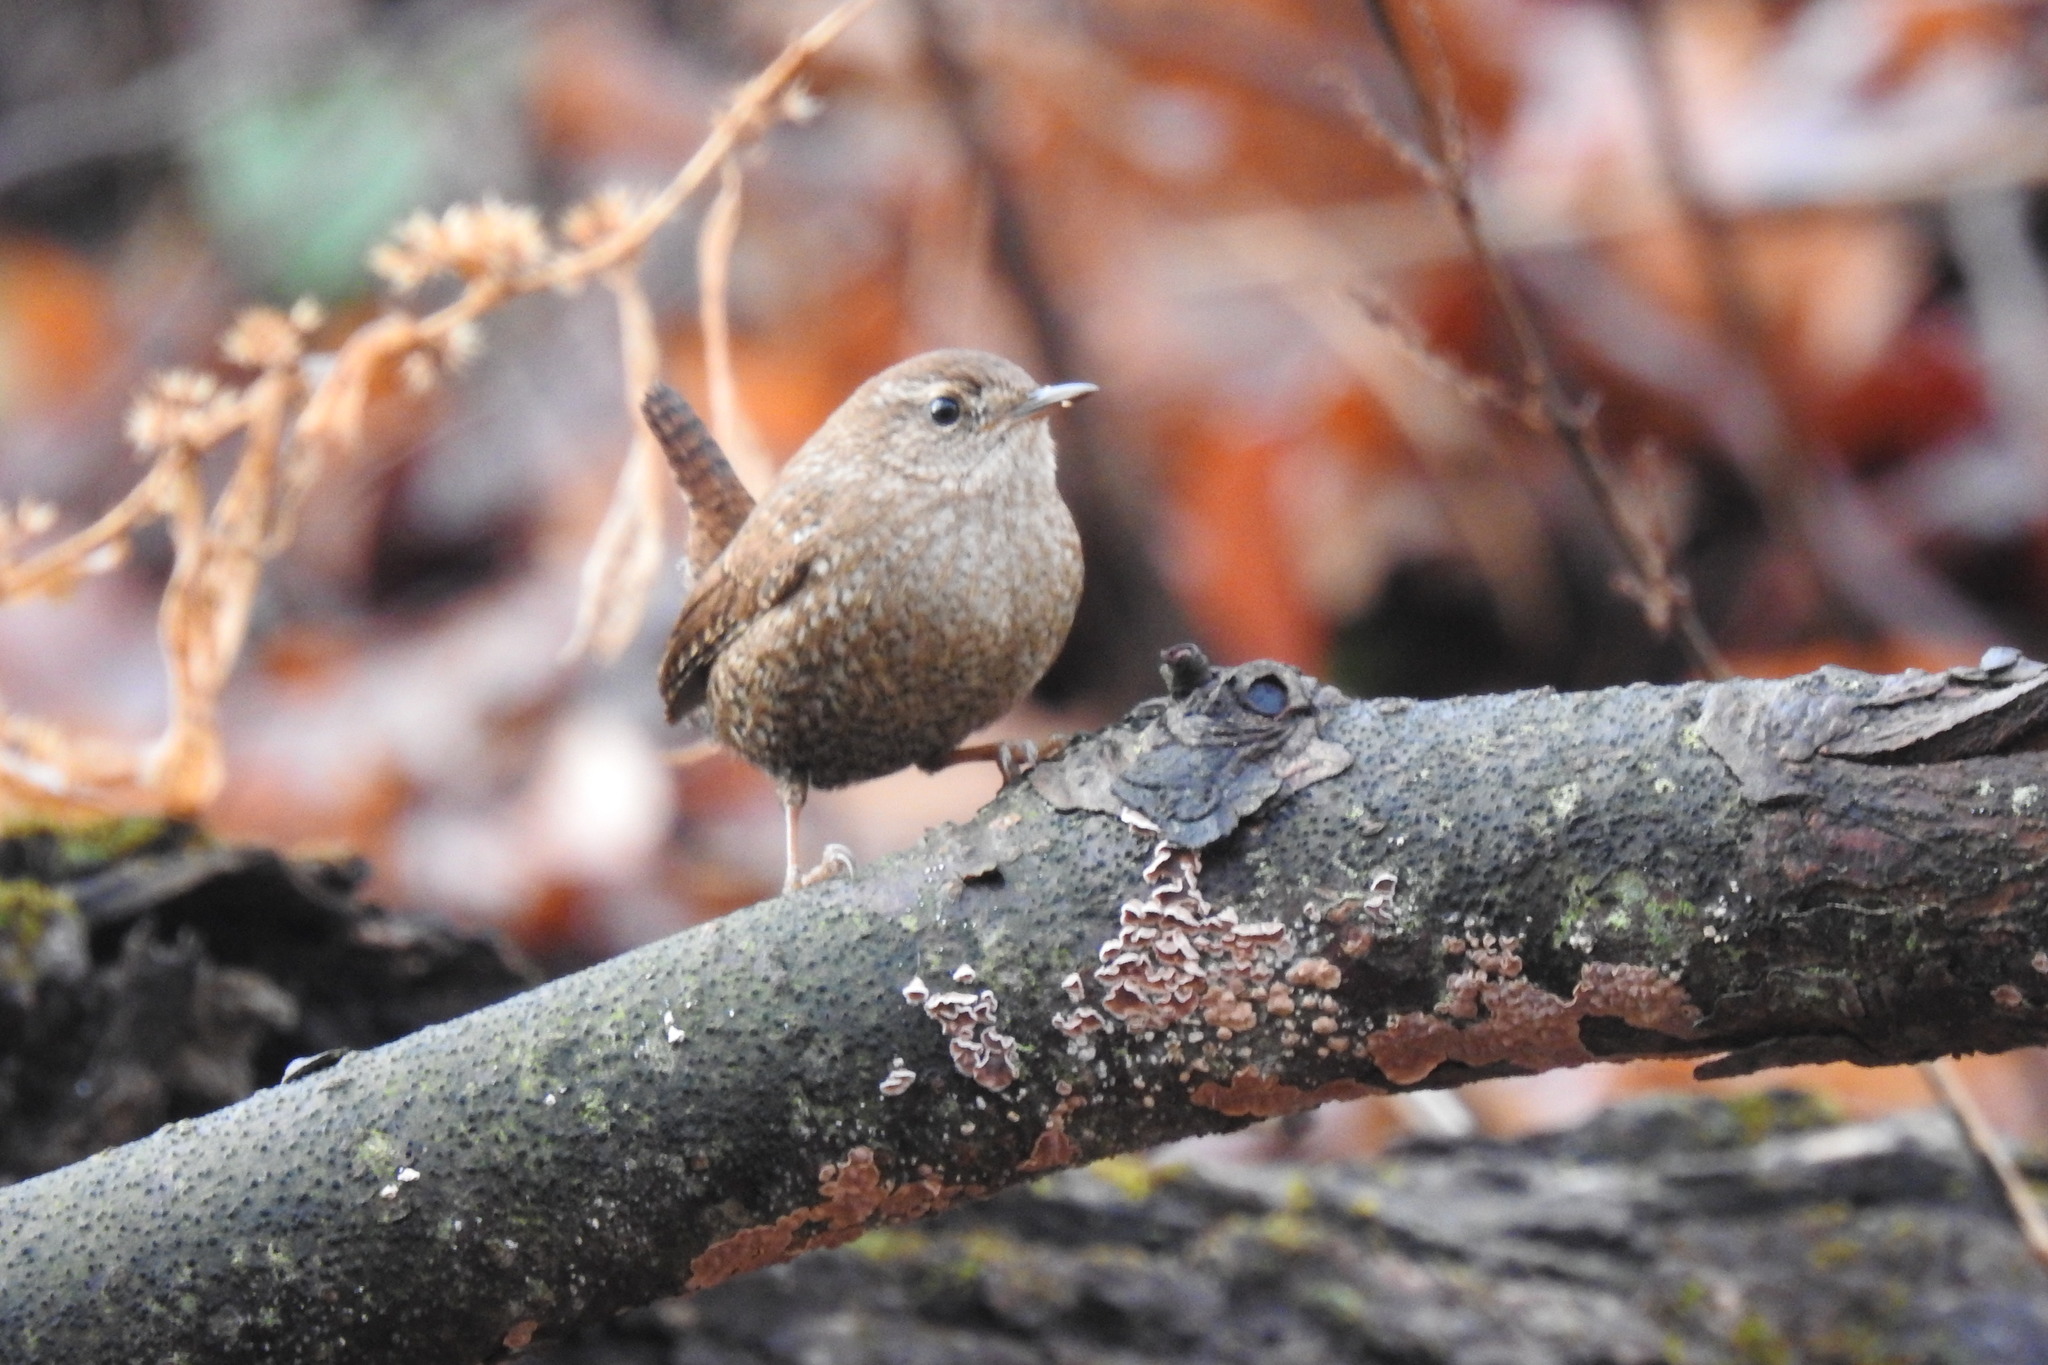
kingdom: Animalia
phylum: Chordata
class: Aves
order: Passeriformes
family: Troglodytidae
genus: Troglodytes
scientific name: Troglodytes hiemalis
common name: Winter wren
